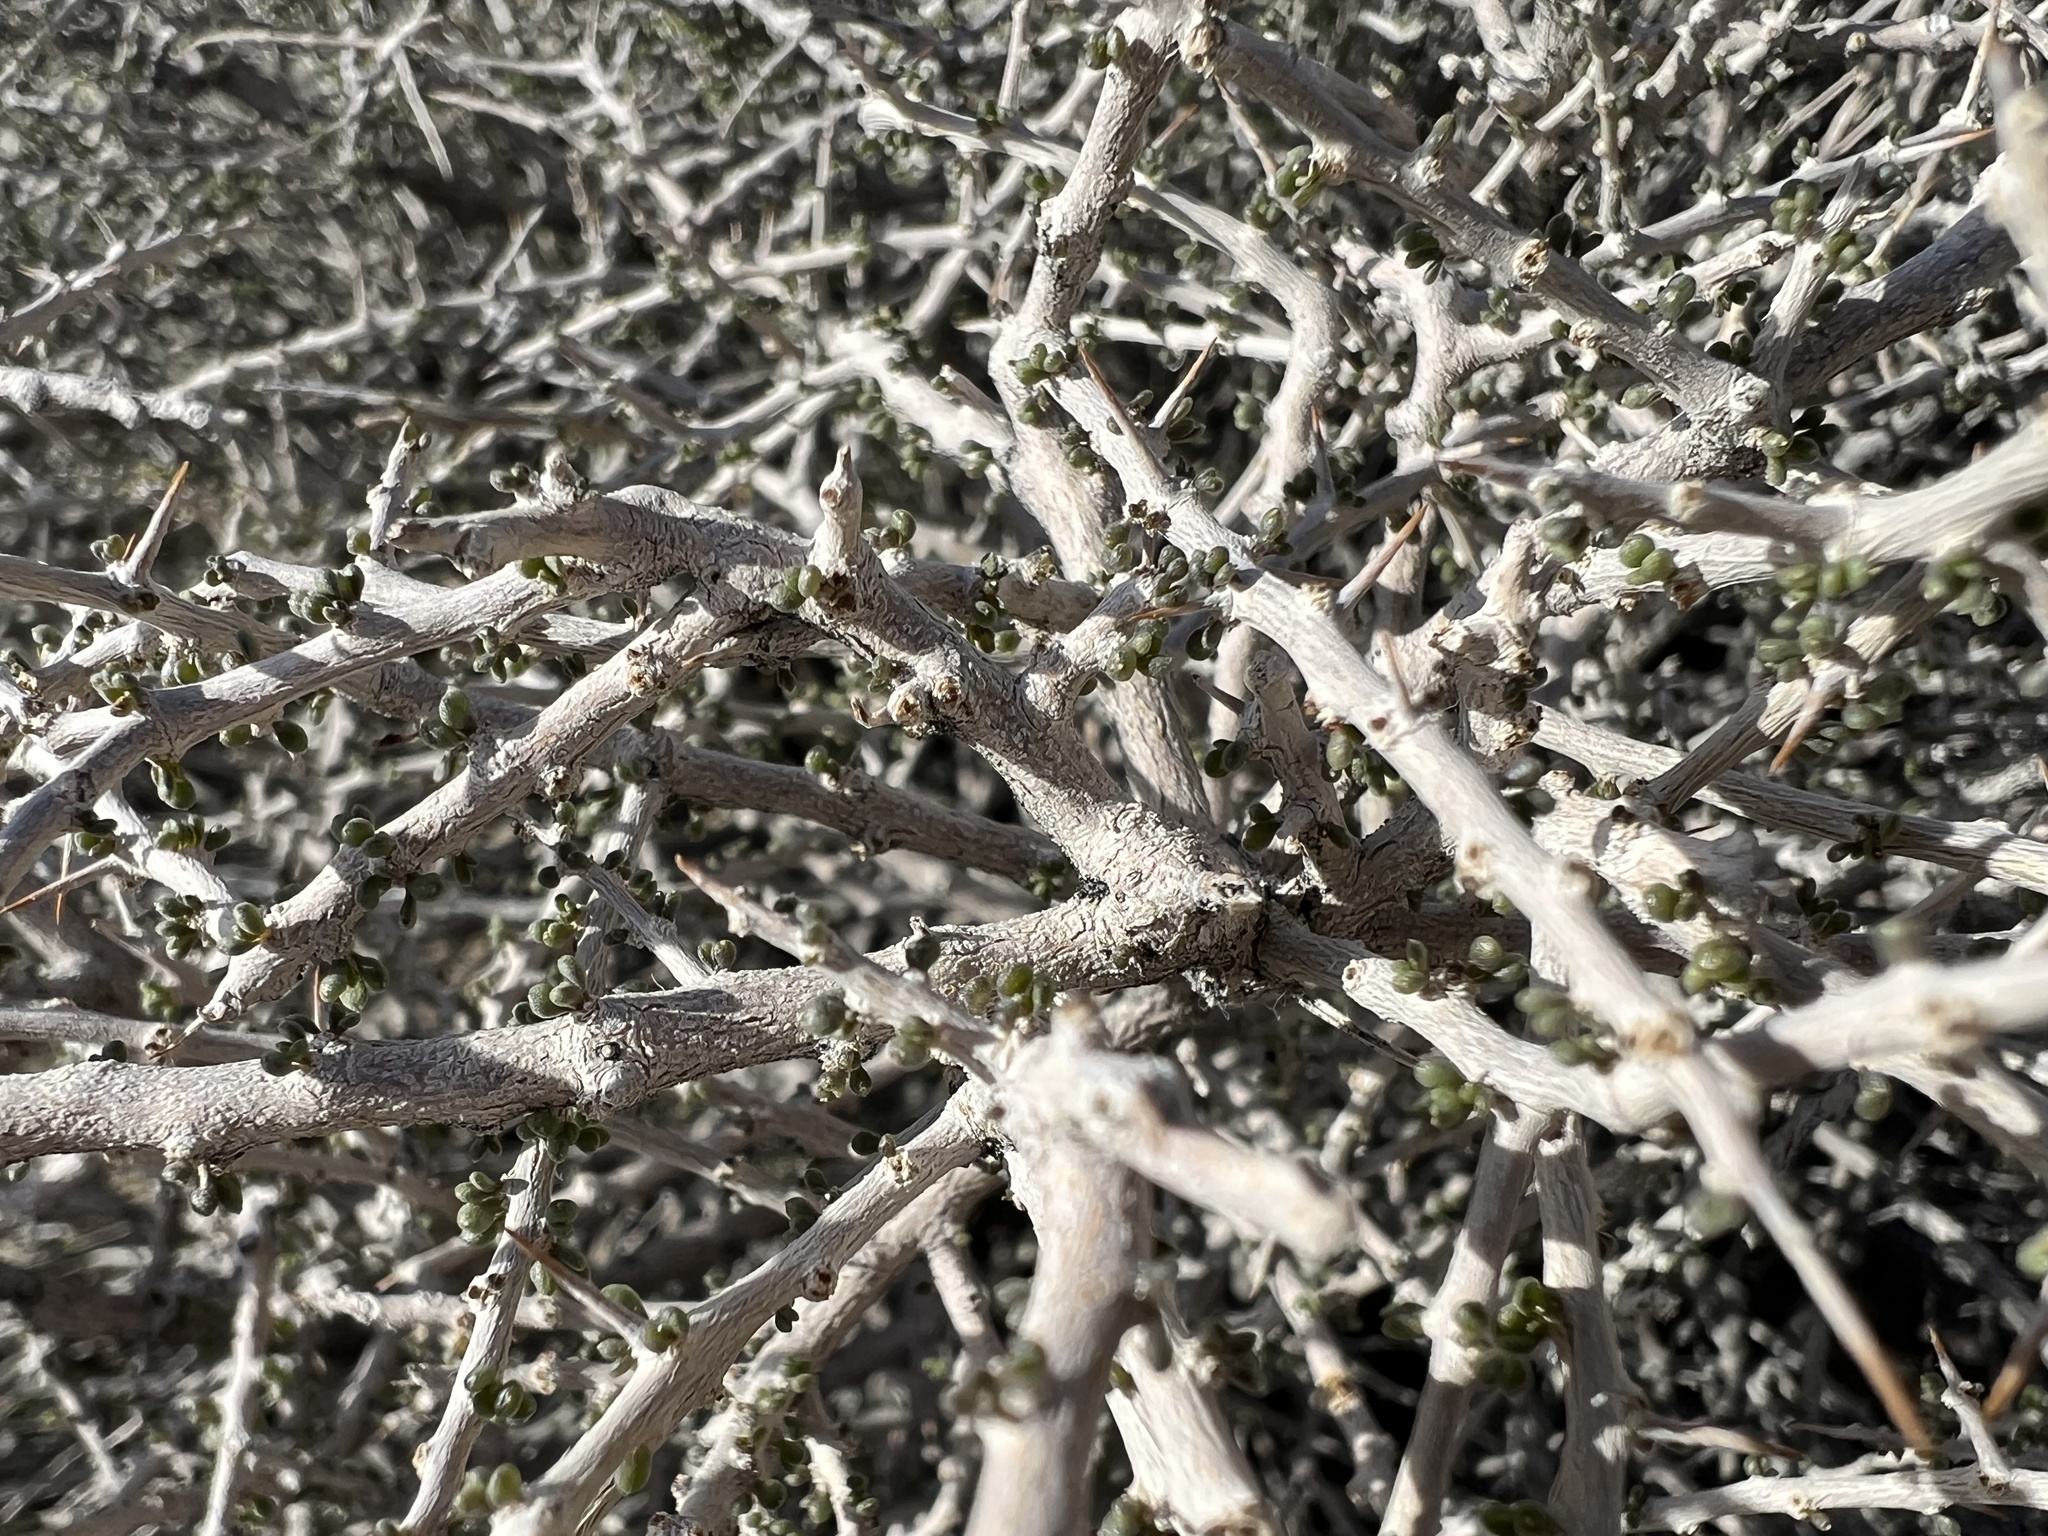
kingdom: Plantae
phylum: Tracheophyta
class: Magnoliopsida
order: Solanales
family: Solanaceae
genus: Lycium
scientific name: Lycium andersonii
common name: Water-jacket
